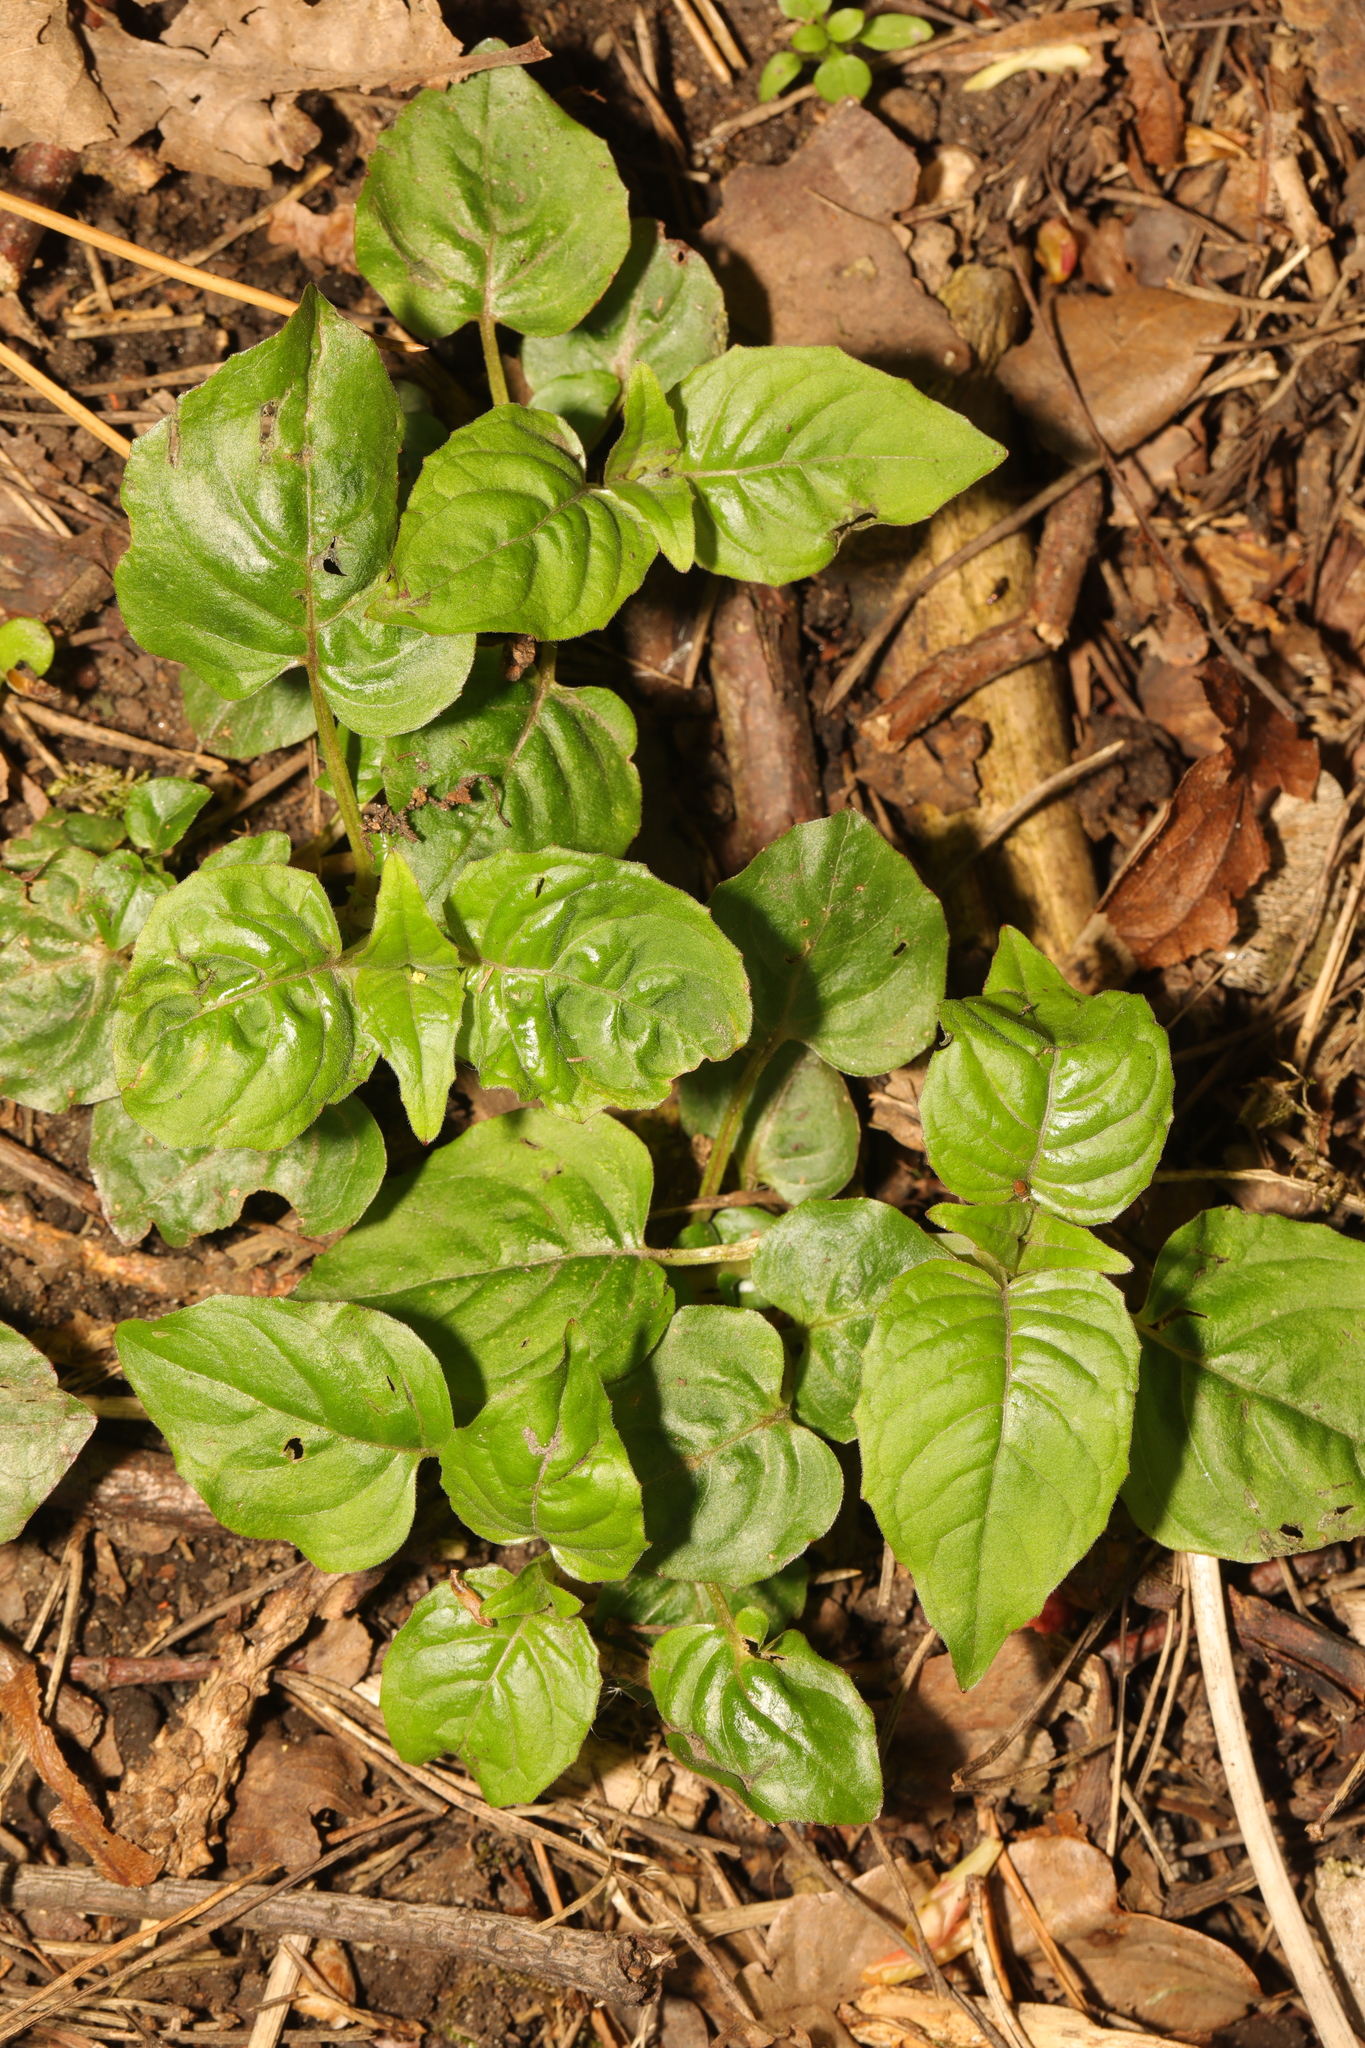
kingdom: Plantae
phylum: Tracheophyta
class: Magnoliopsida
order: Myrtales
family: Onagraceae
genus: Circaea
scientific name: Circaea lutetiana
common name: Enchanter's-nightshade
